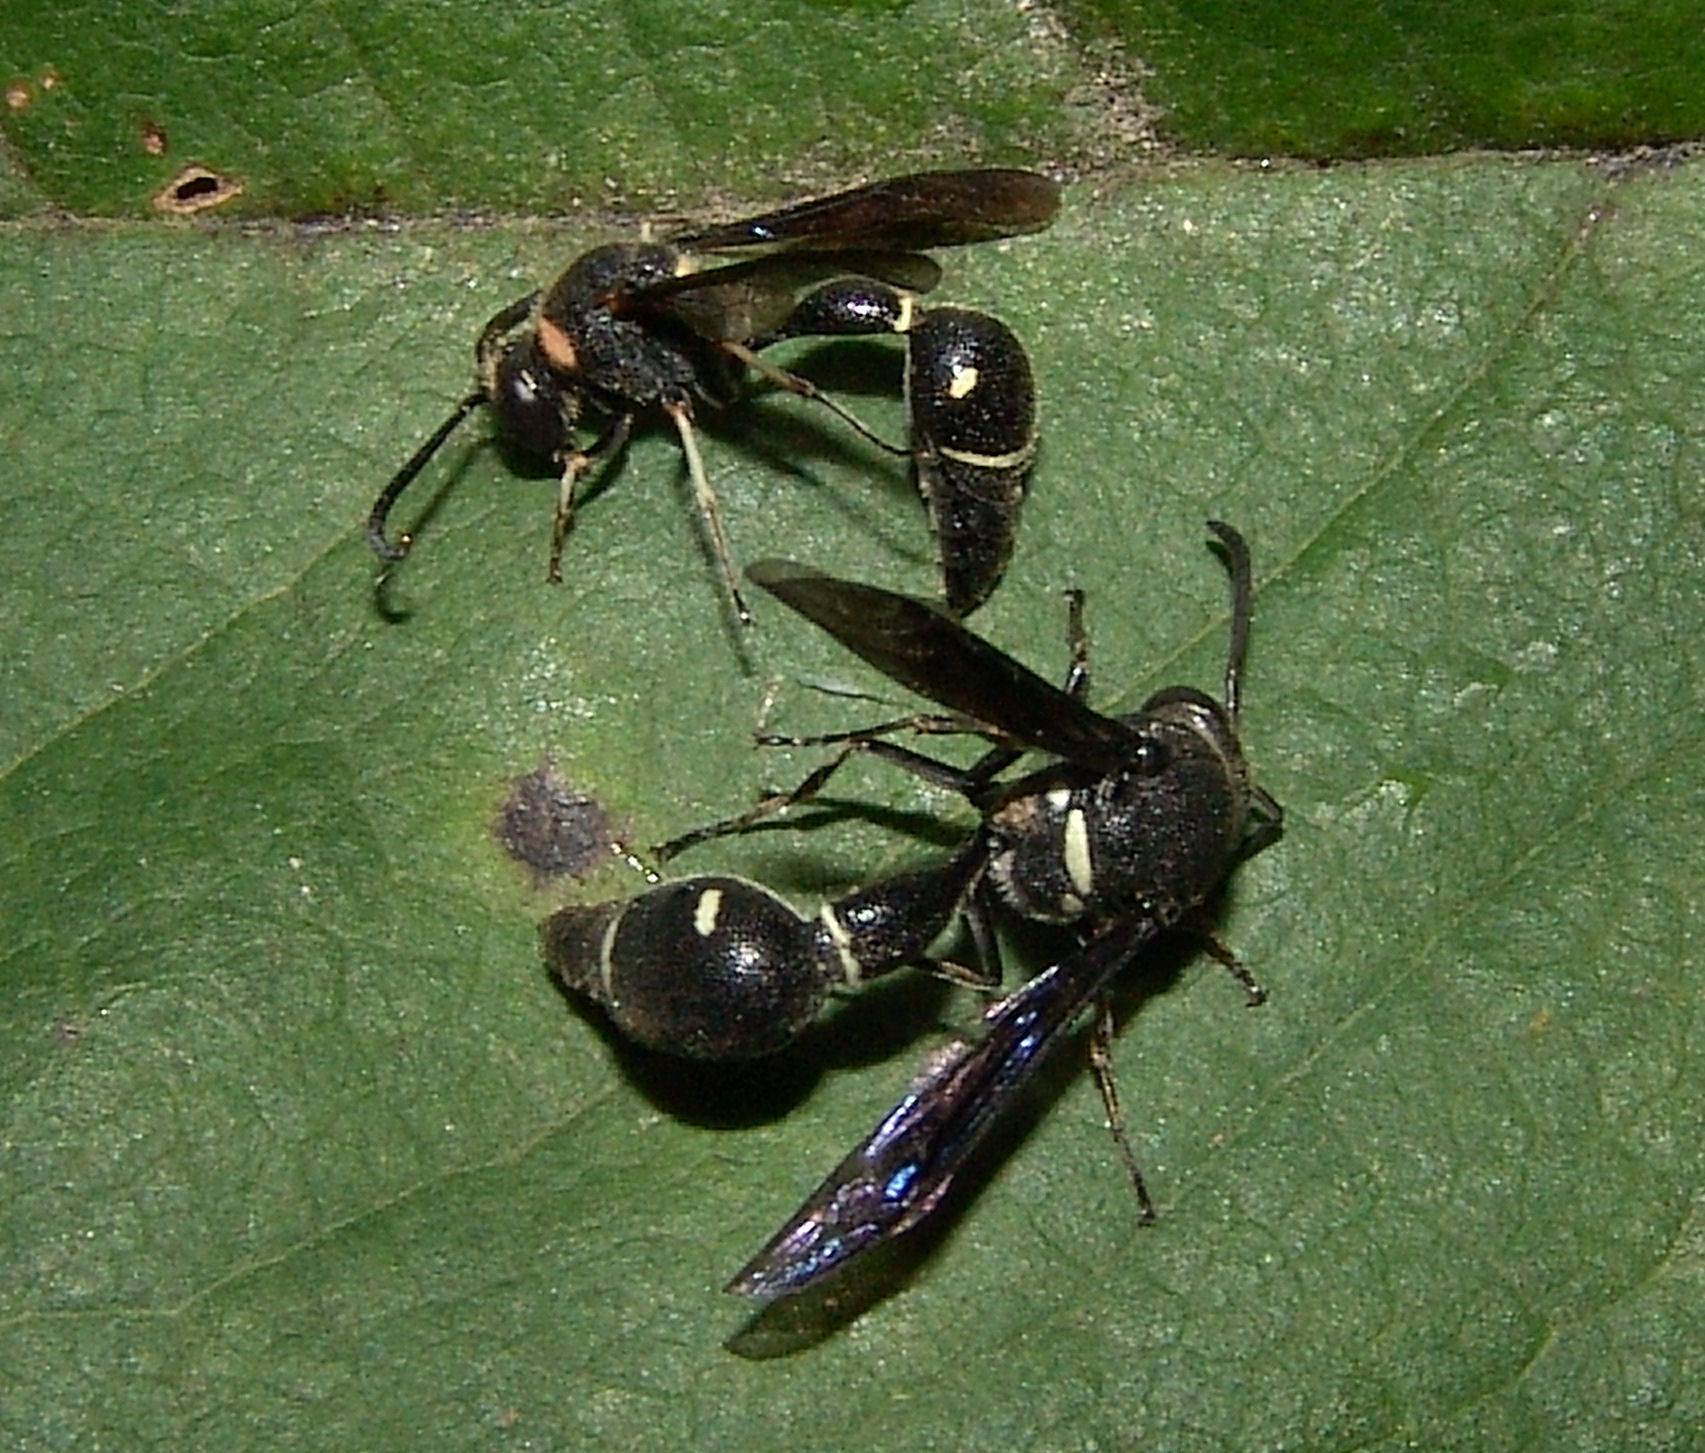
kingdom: Animalia
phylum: Arthropoda
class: Insecta
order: Hymenoptera
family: Vespidae
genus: Eumenes
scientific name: Eumenes fraternus
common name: Fraternal potter wasp
